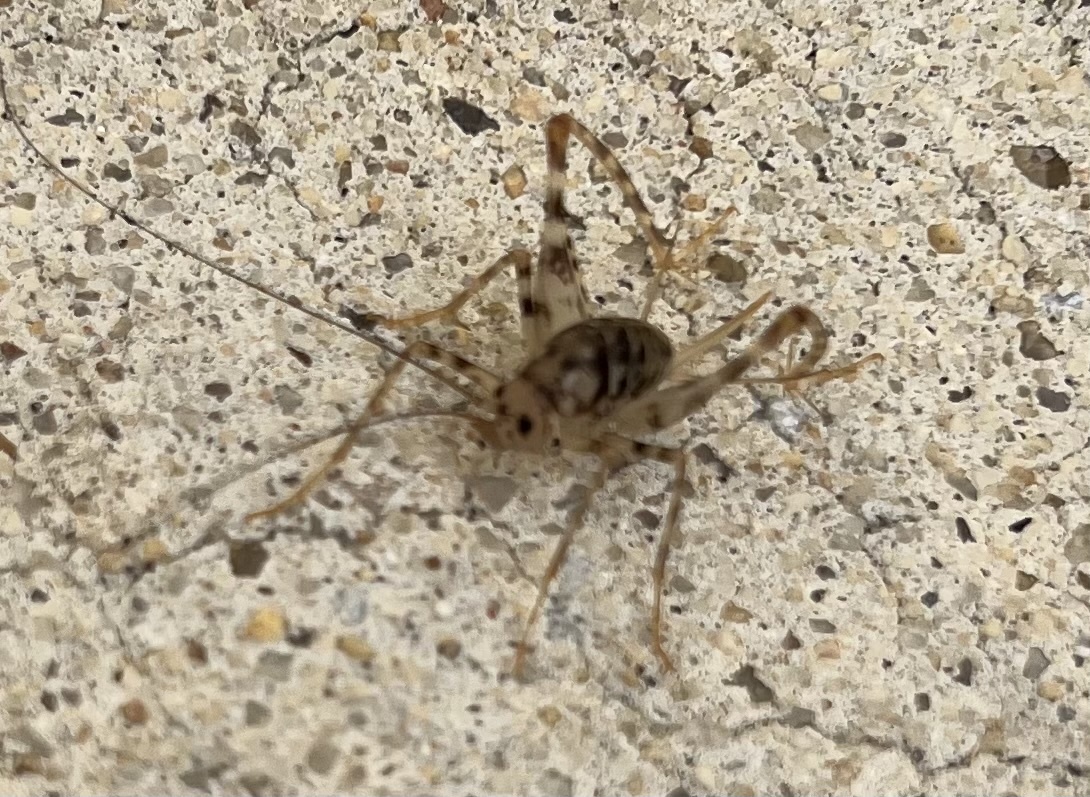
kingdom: Animalia
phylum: Arthropoda
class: Insecta
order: Orthoptera
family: Rhaphidophoridae
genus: Tachycines
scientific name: Tachycines asynamorus
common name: Greenhouse camel cricket
